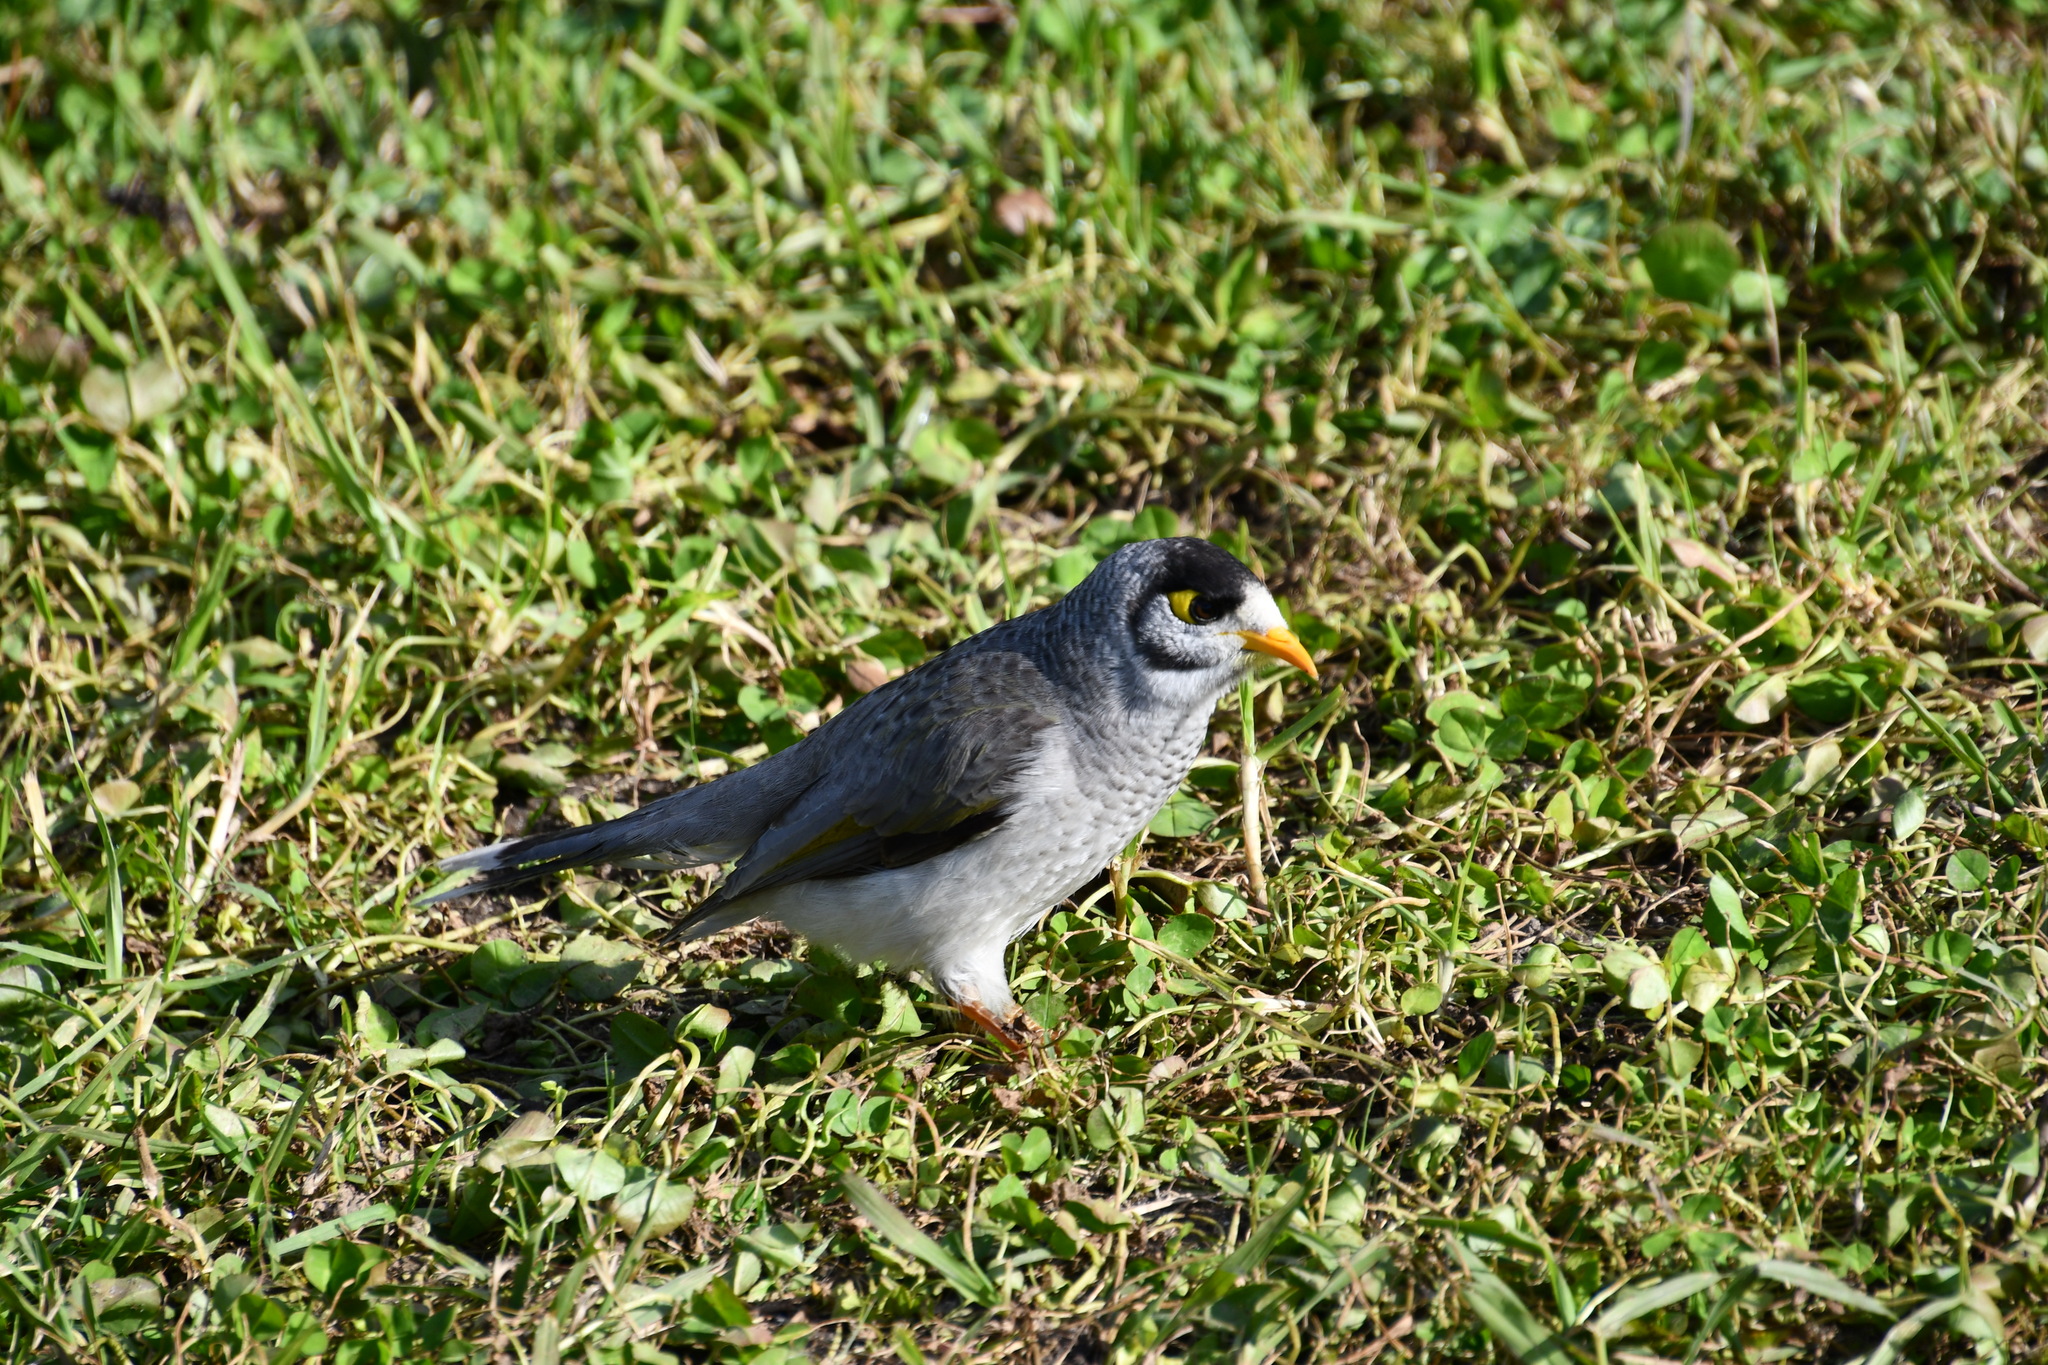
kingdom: Animalia
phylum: Chordata
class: Aves
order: Passeriformes
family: Meliphagidae
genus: Manorina
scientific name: Manorina melanocephala
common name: Noisy miner
